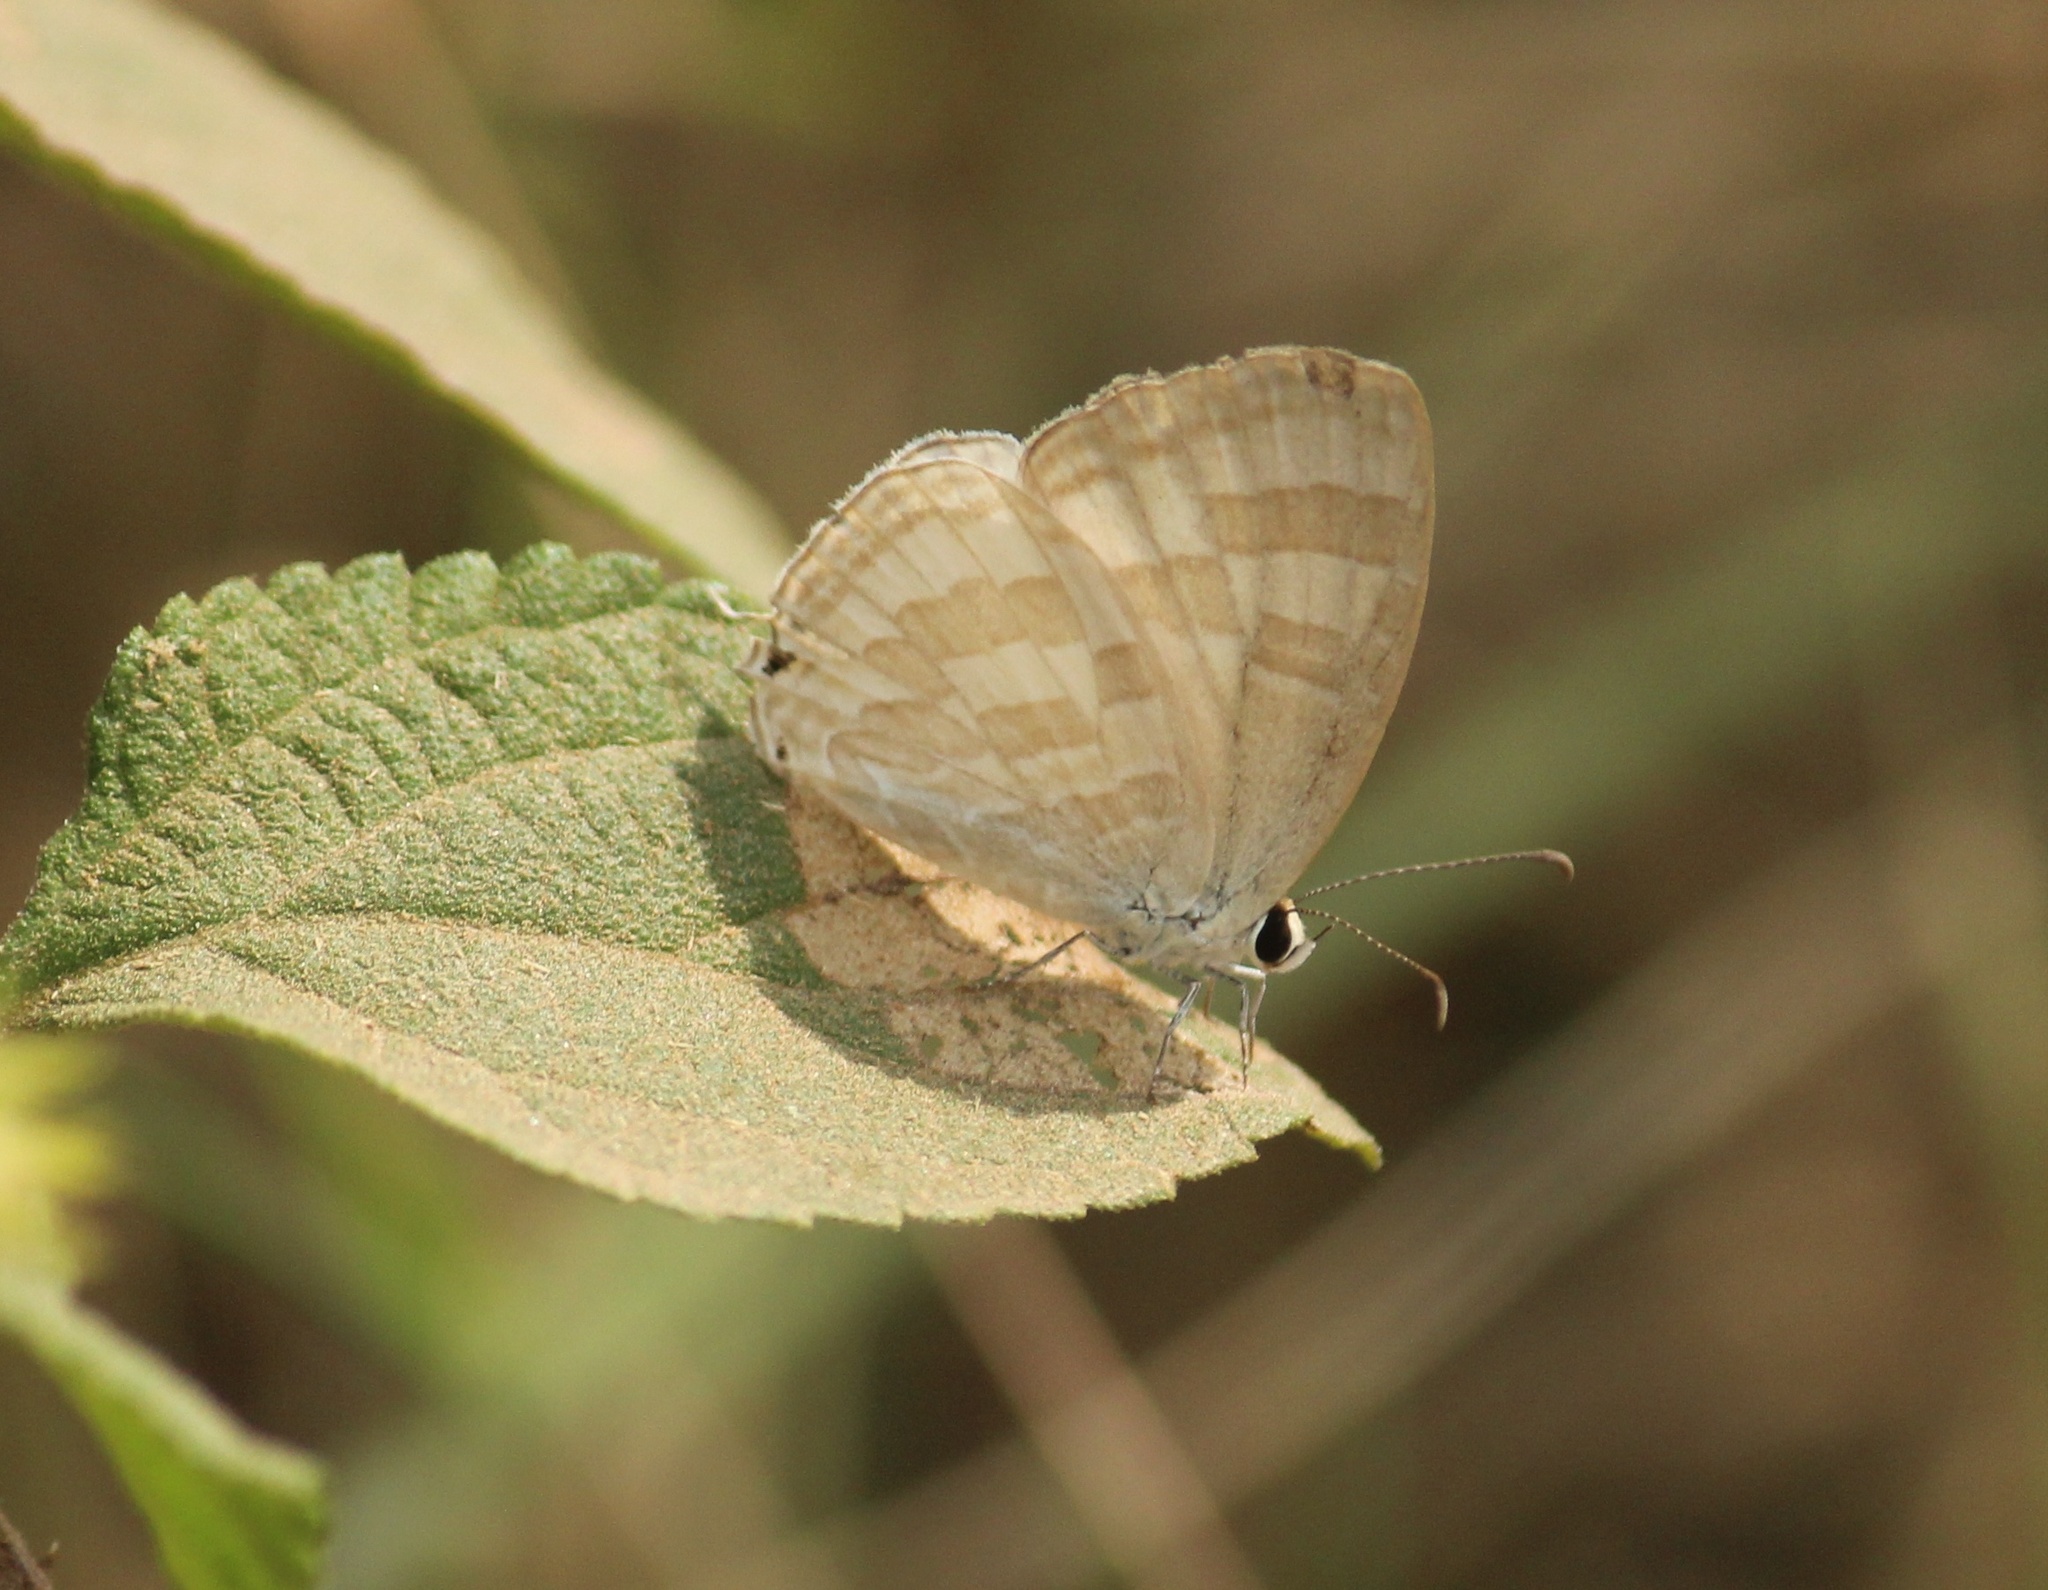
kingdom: Animalia
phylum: Arthropoda
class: Insecta
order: Lepidoptera
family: Lycaenidae
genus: Jamides
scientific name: Jamides celeno
